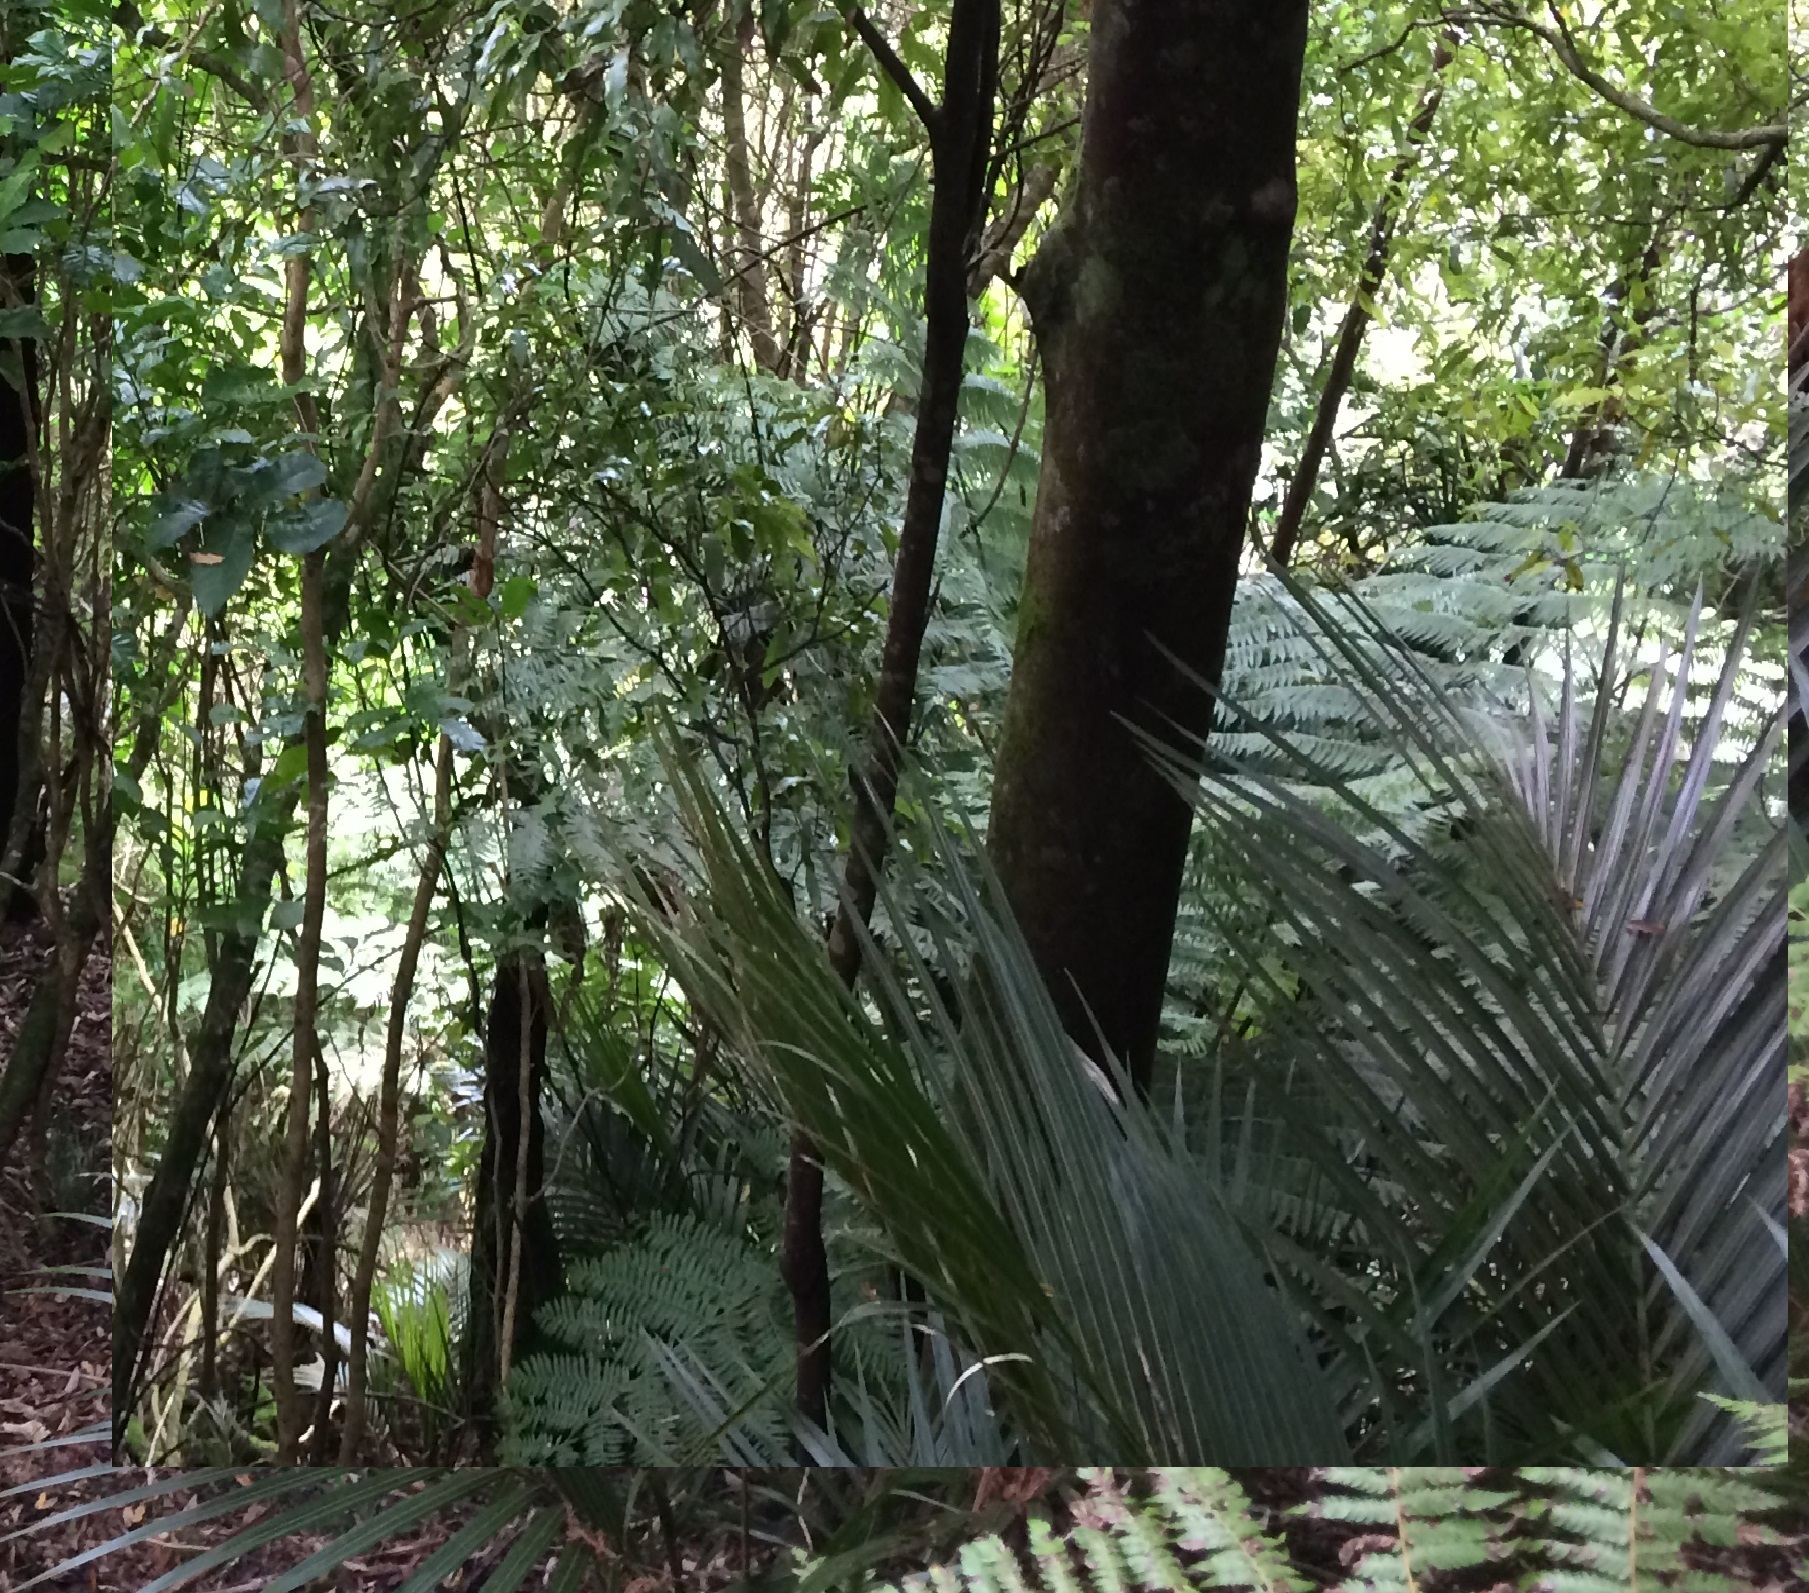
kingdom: Plantae
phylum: Tracheophyta
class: Liliopsida
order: Arecales
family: Arecaceae
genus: Rhopalostylis
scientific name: Rhopalostylis sapida
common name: Feather-duster palm
